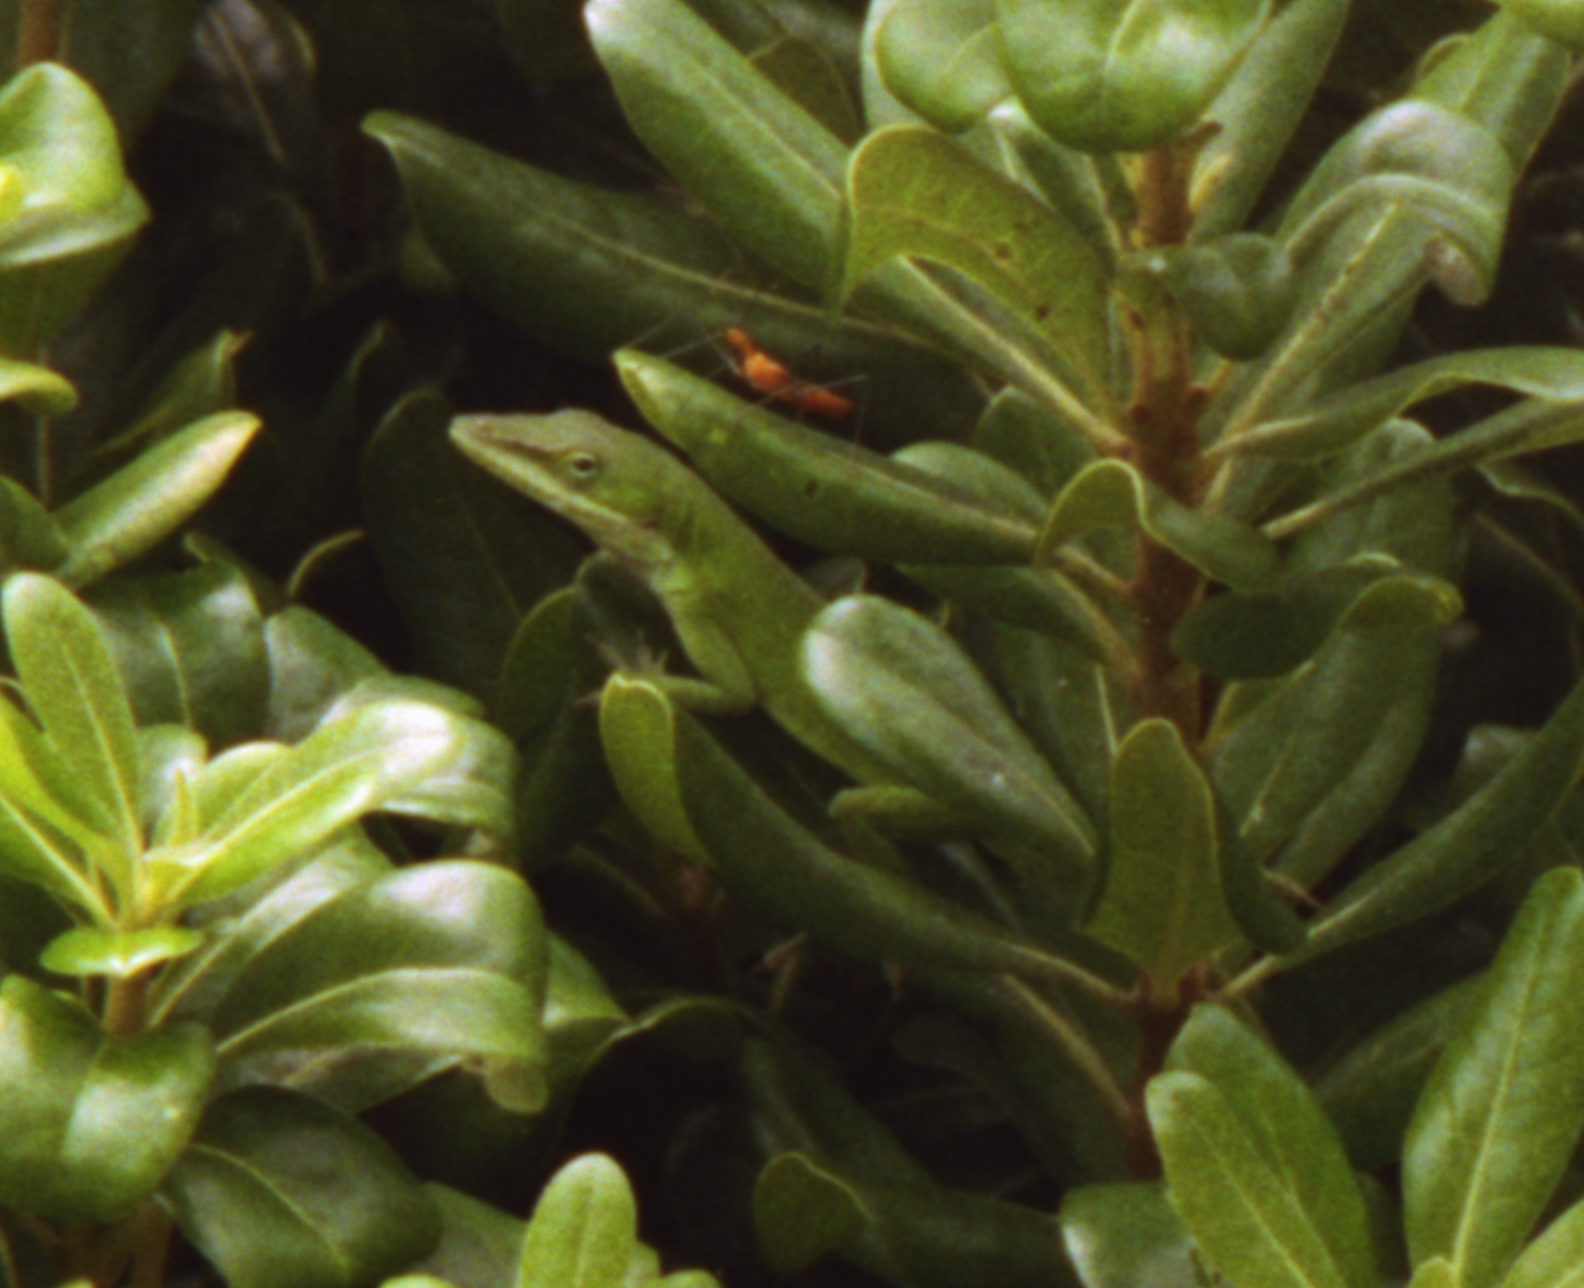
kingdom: Animalia
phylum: Chordata
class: Squamata
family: Dactyloidae
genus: Anolis
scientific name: Anolis carolinensis
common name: Green anole
